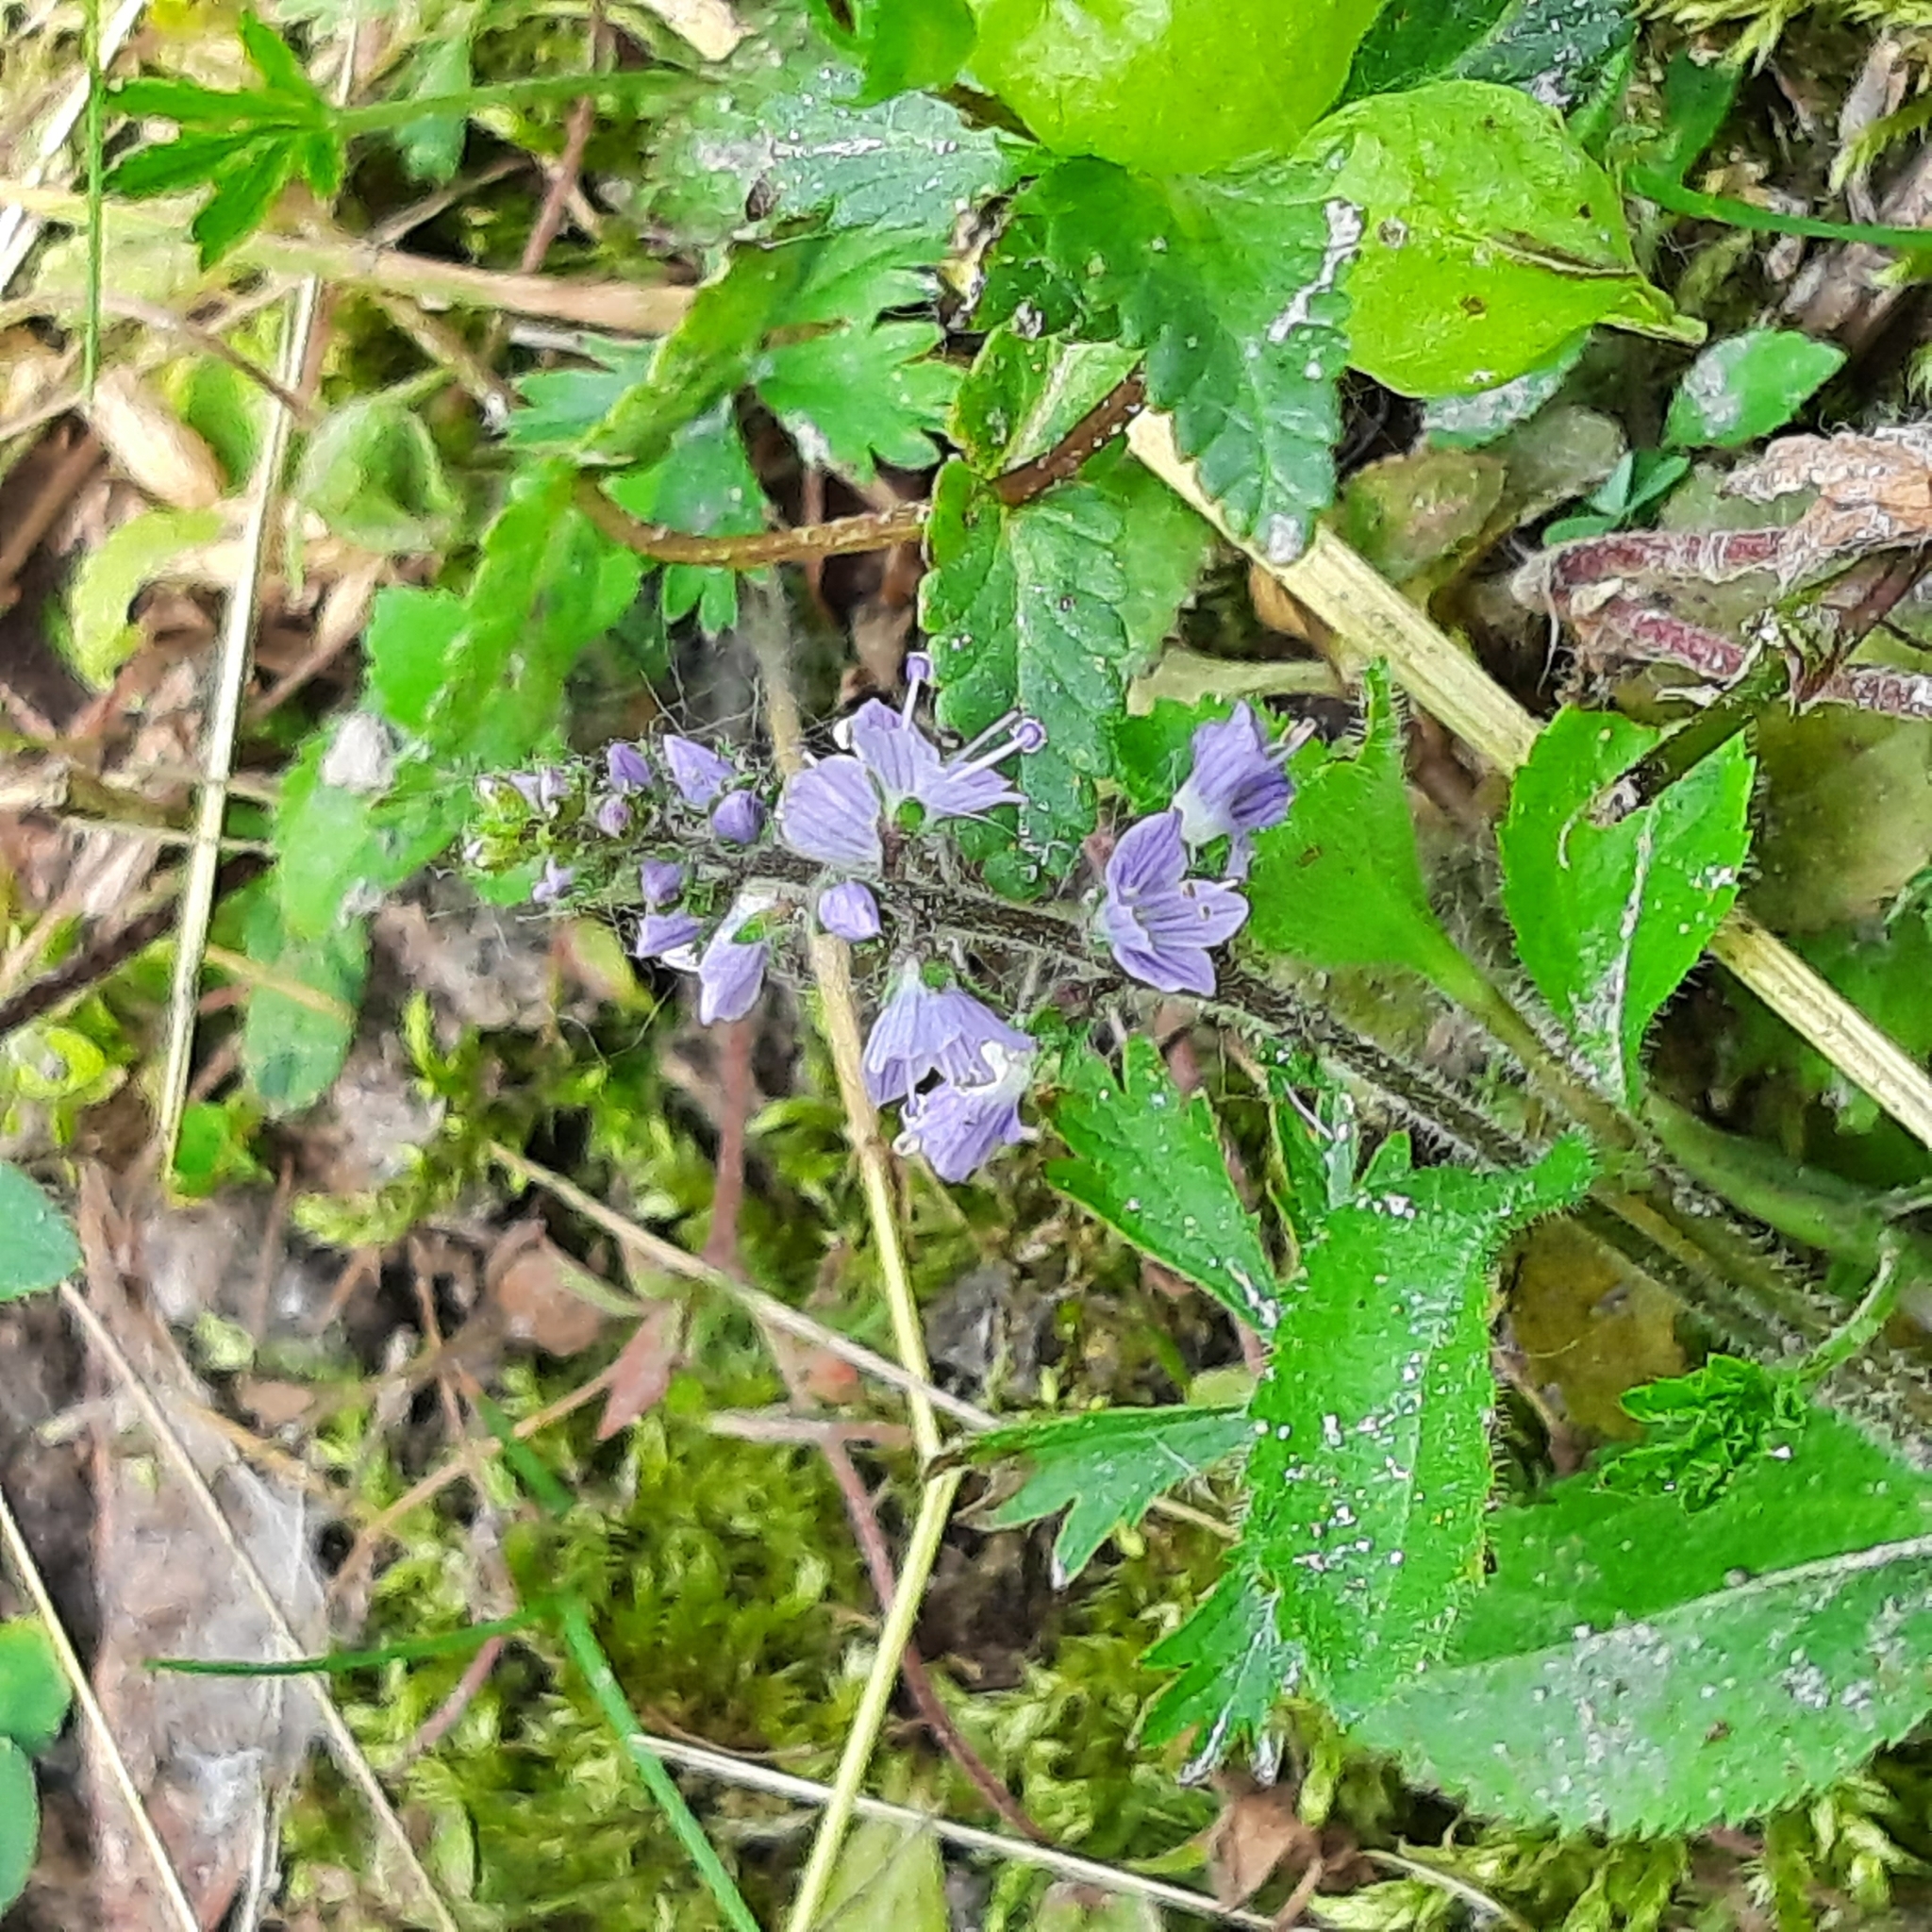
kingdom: Plantae
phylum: Tracheophyta
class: Magnoliopsida
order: Lamiales
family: Plantaginaceae
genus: Veronica
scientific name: Veronica officinalis
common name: Common speedwell
